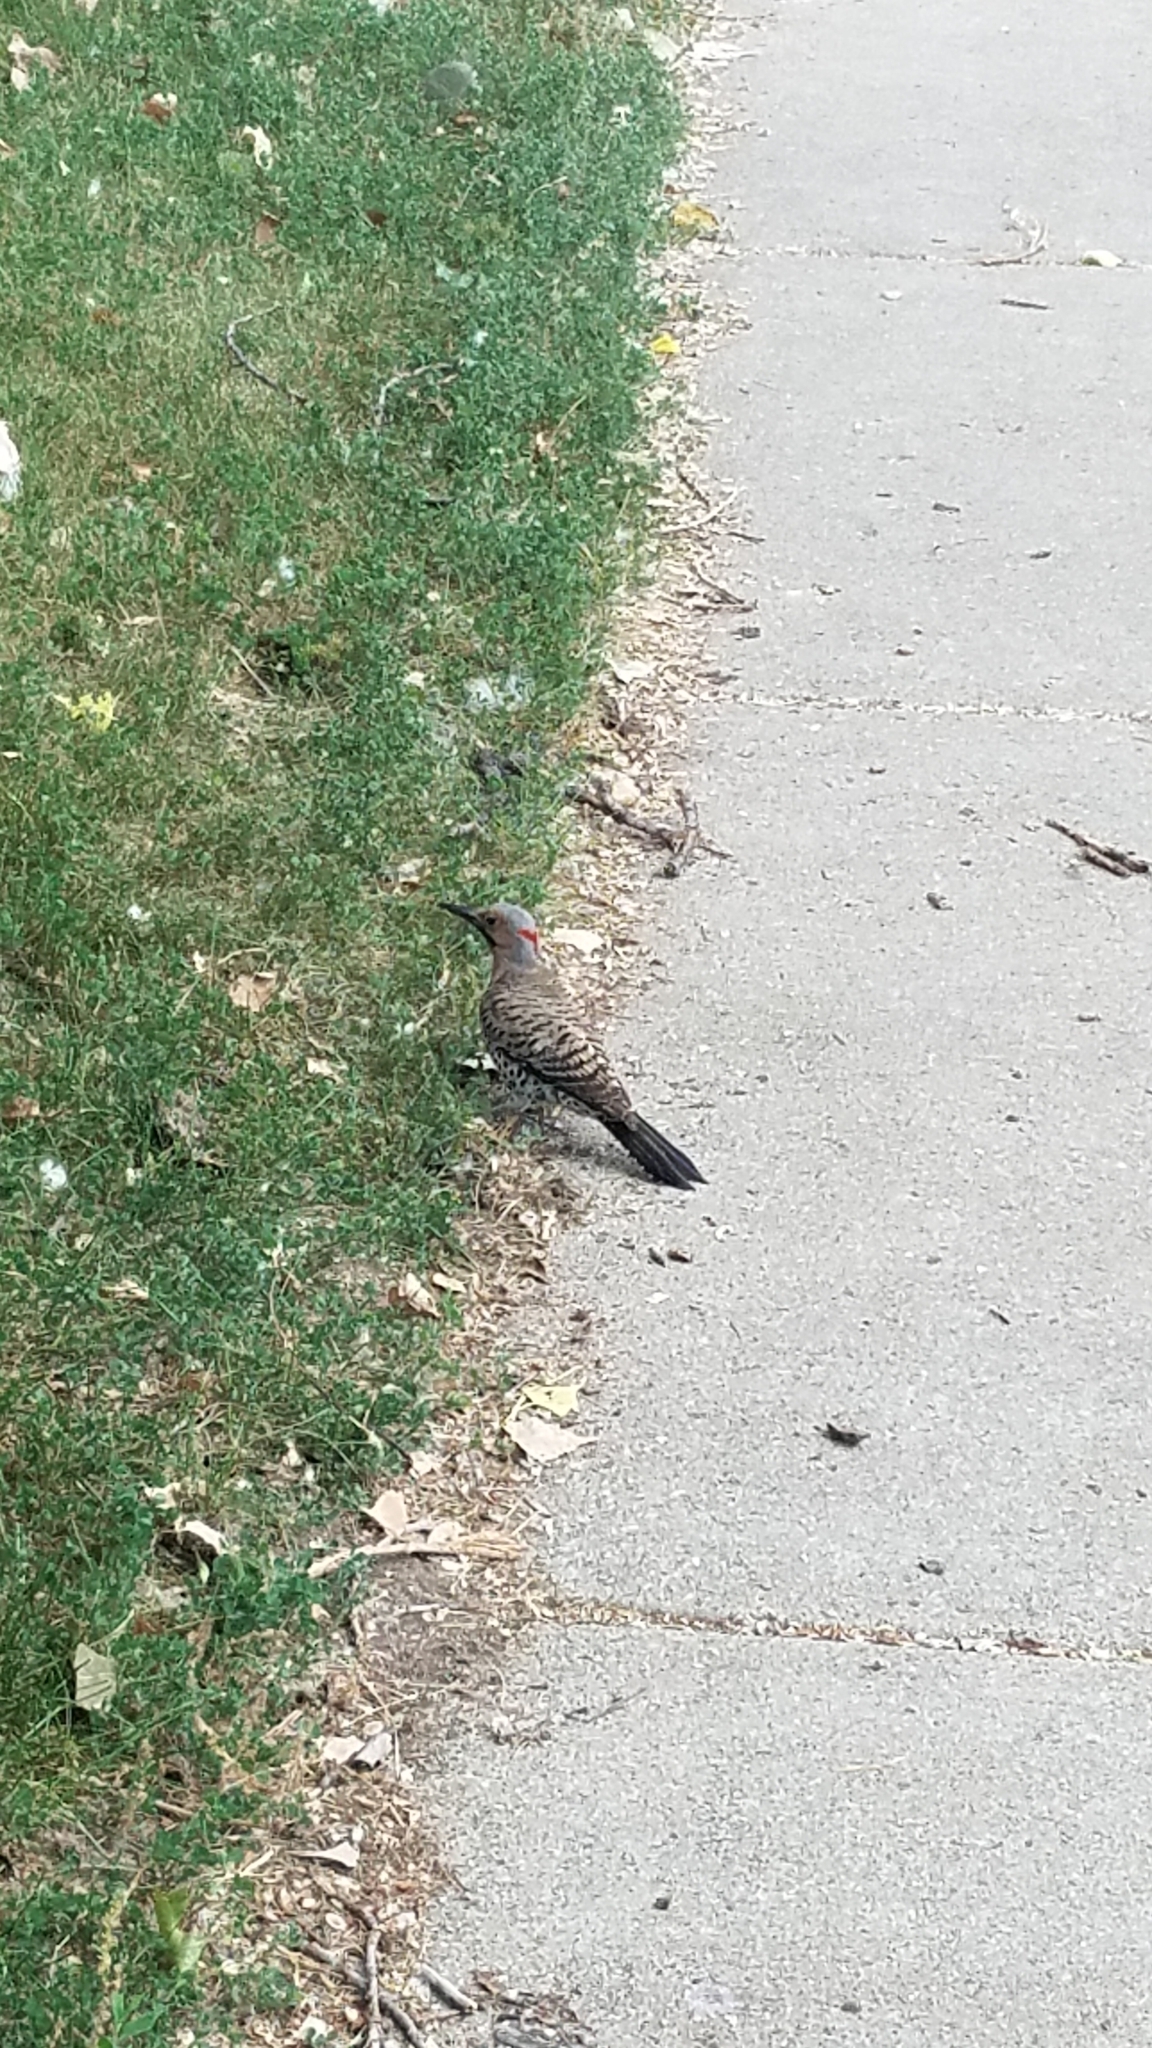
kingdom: Animalia
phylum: Chordata
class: Aves
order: Piciformes
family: Picidae
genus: Colaptes
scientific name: Colaptes auratus
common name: Northern flicker
